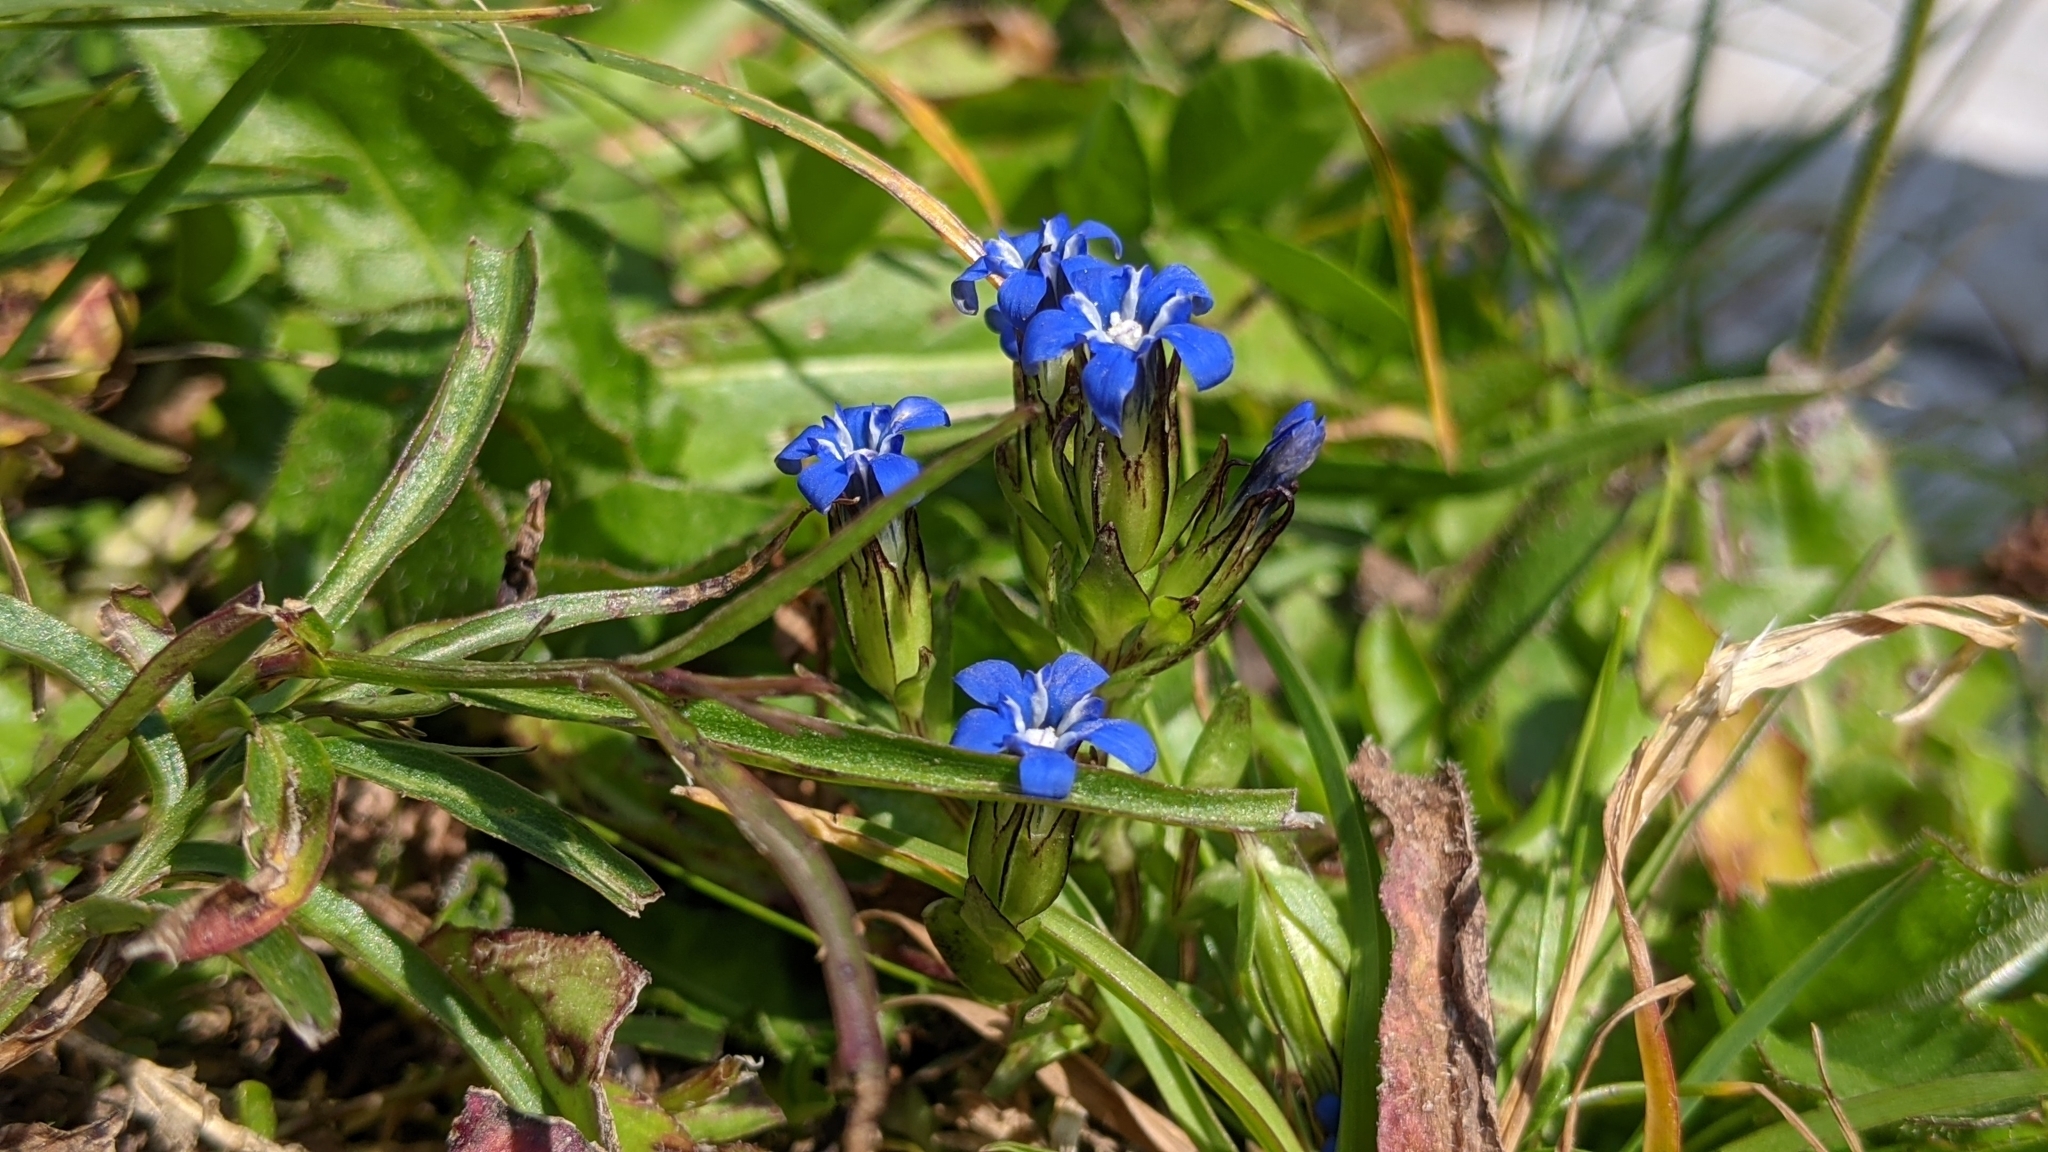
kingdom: Plantae
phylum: Tracheophyta
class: Magnoliopsida
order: Gentianales
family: Gentianaceae
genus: Gentiana
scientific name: Gentiana nivalis
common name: Alpine gentian
